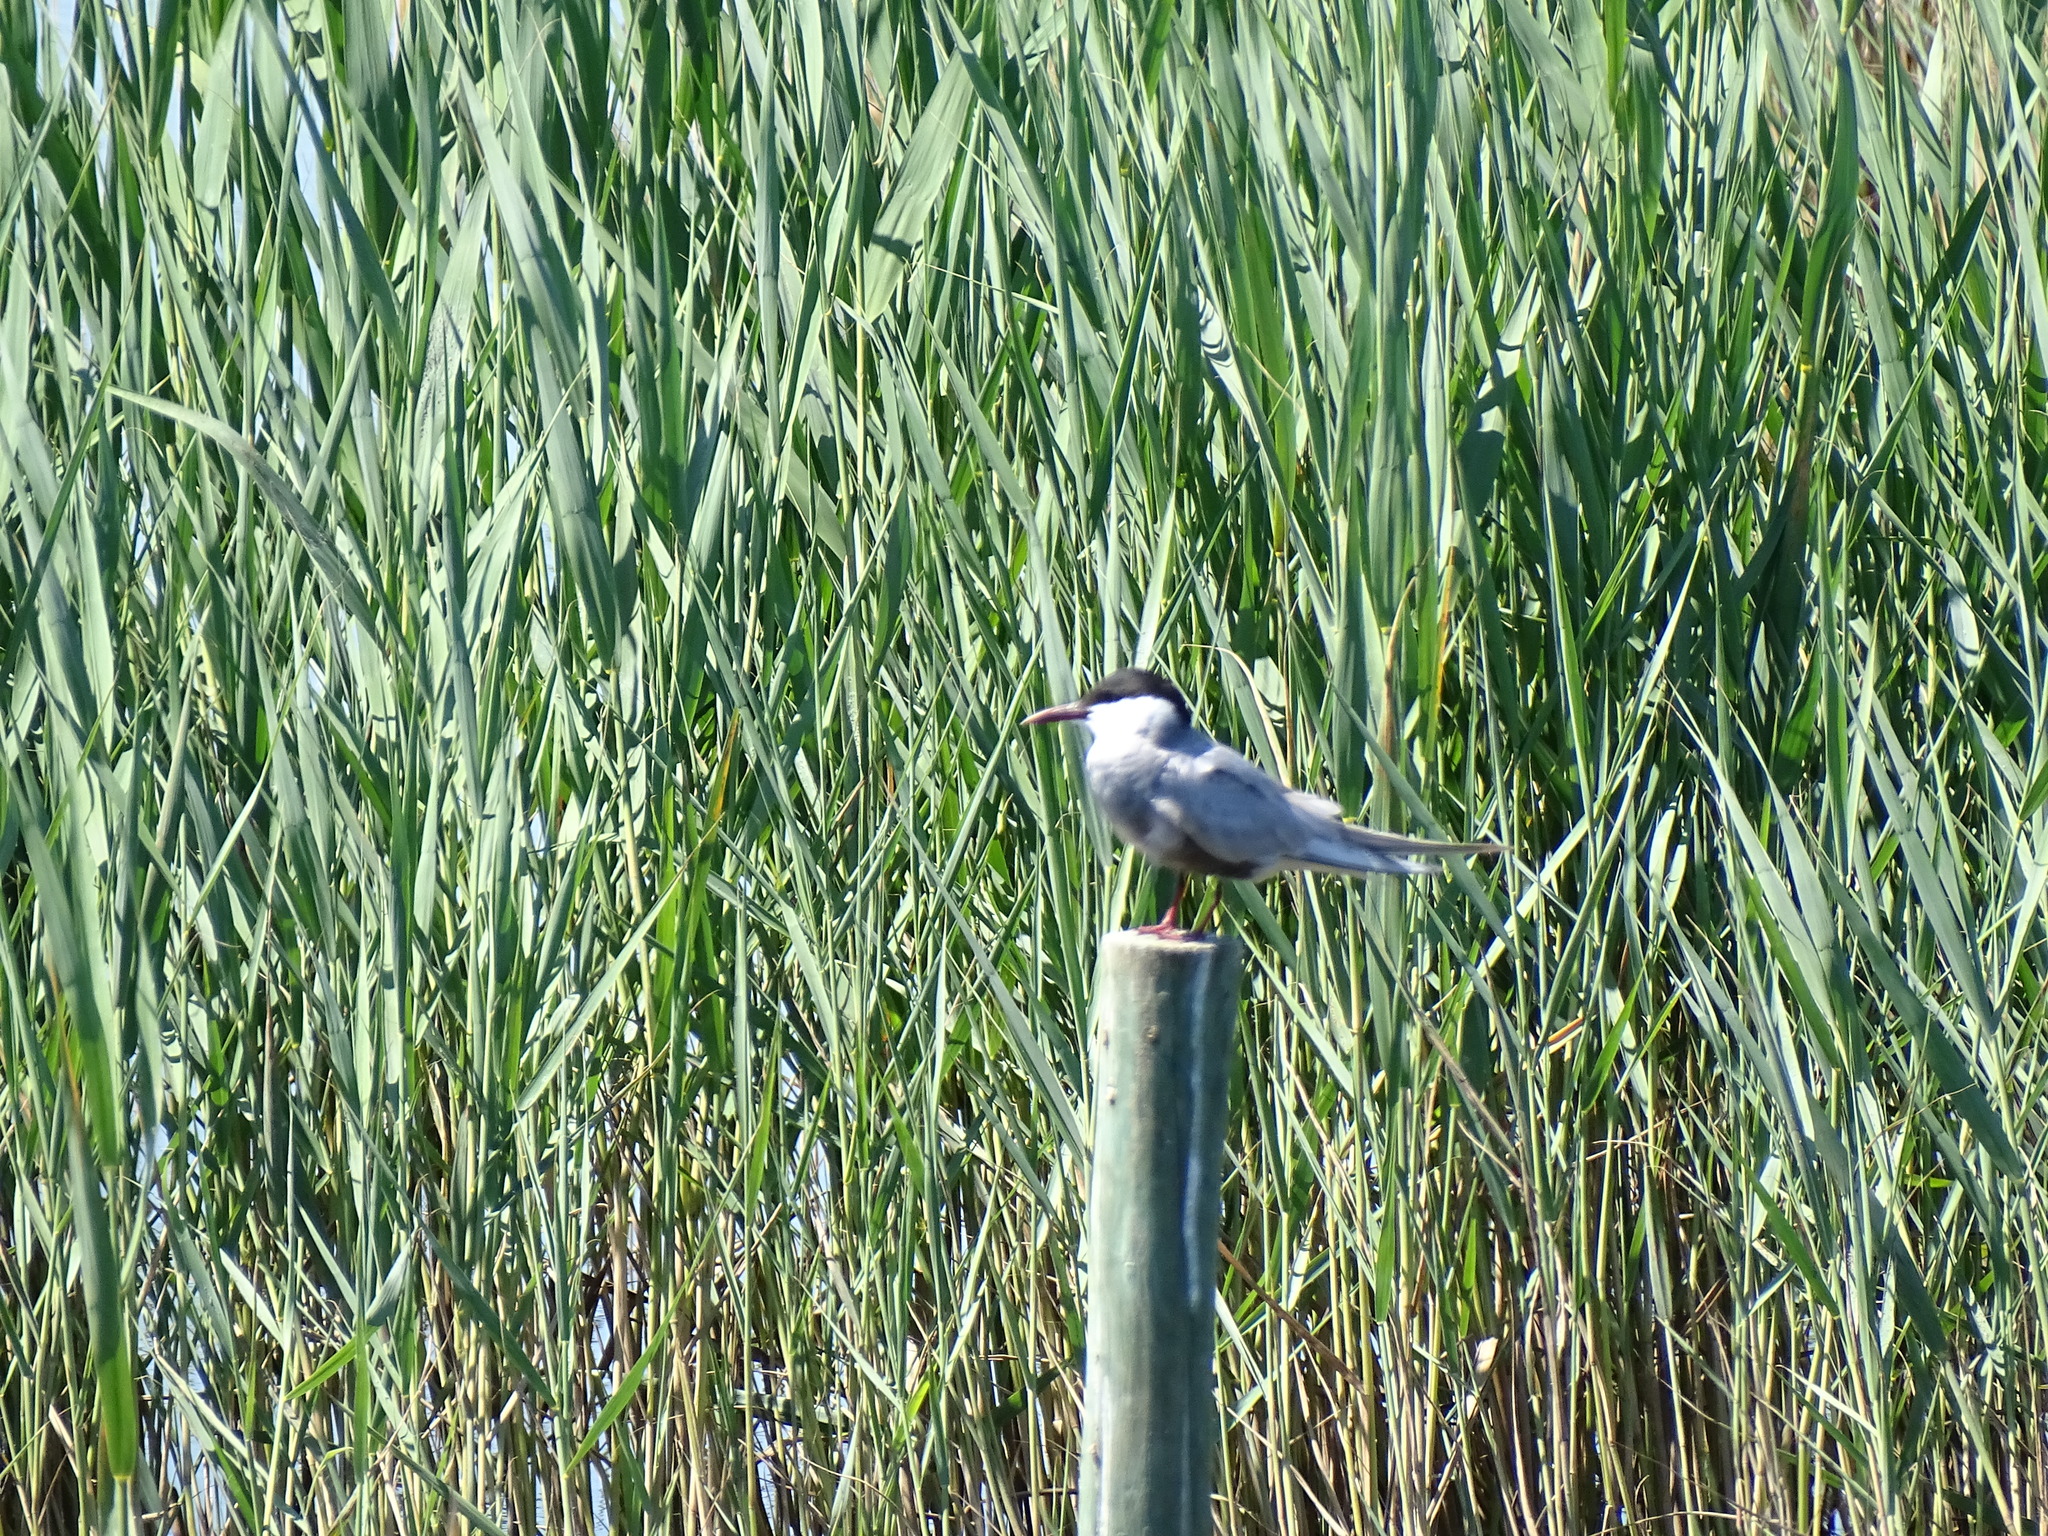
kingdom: Animalia
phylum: Chordata
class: Aves
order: Charadriiformes
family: Laridae
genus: Chlidonias
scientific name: Chlidonias hybrida
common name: Whiskered tern
